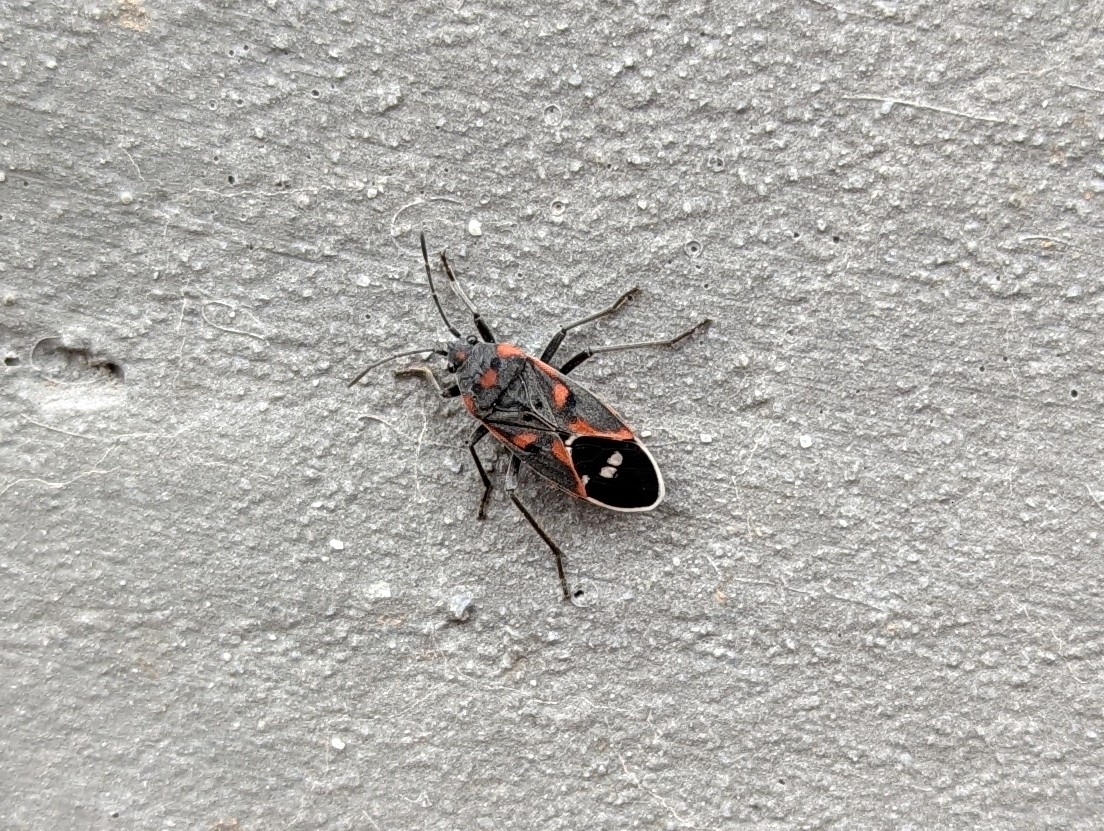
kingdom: Animalia
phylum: Arthropoda
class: Insecta
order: Hemiptera
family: Lygaeidae
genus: Lygaeus
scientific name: Lygaeus kalmii
